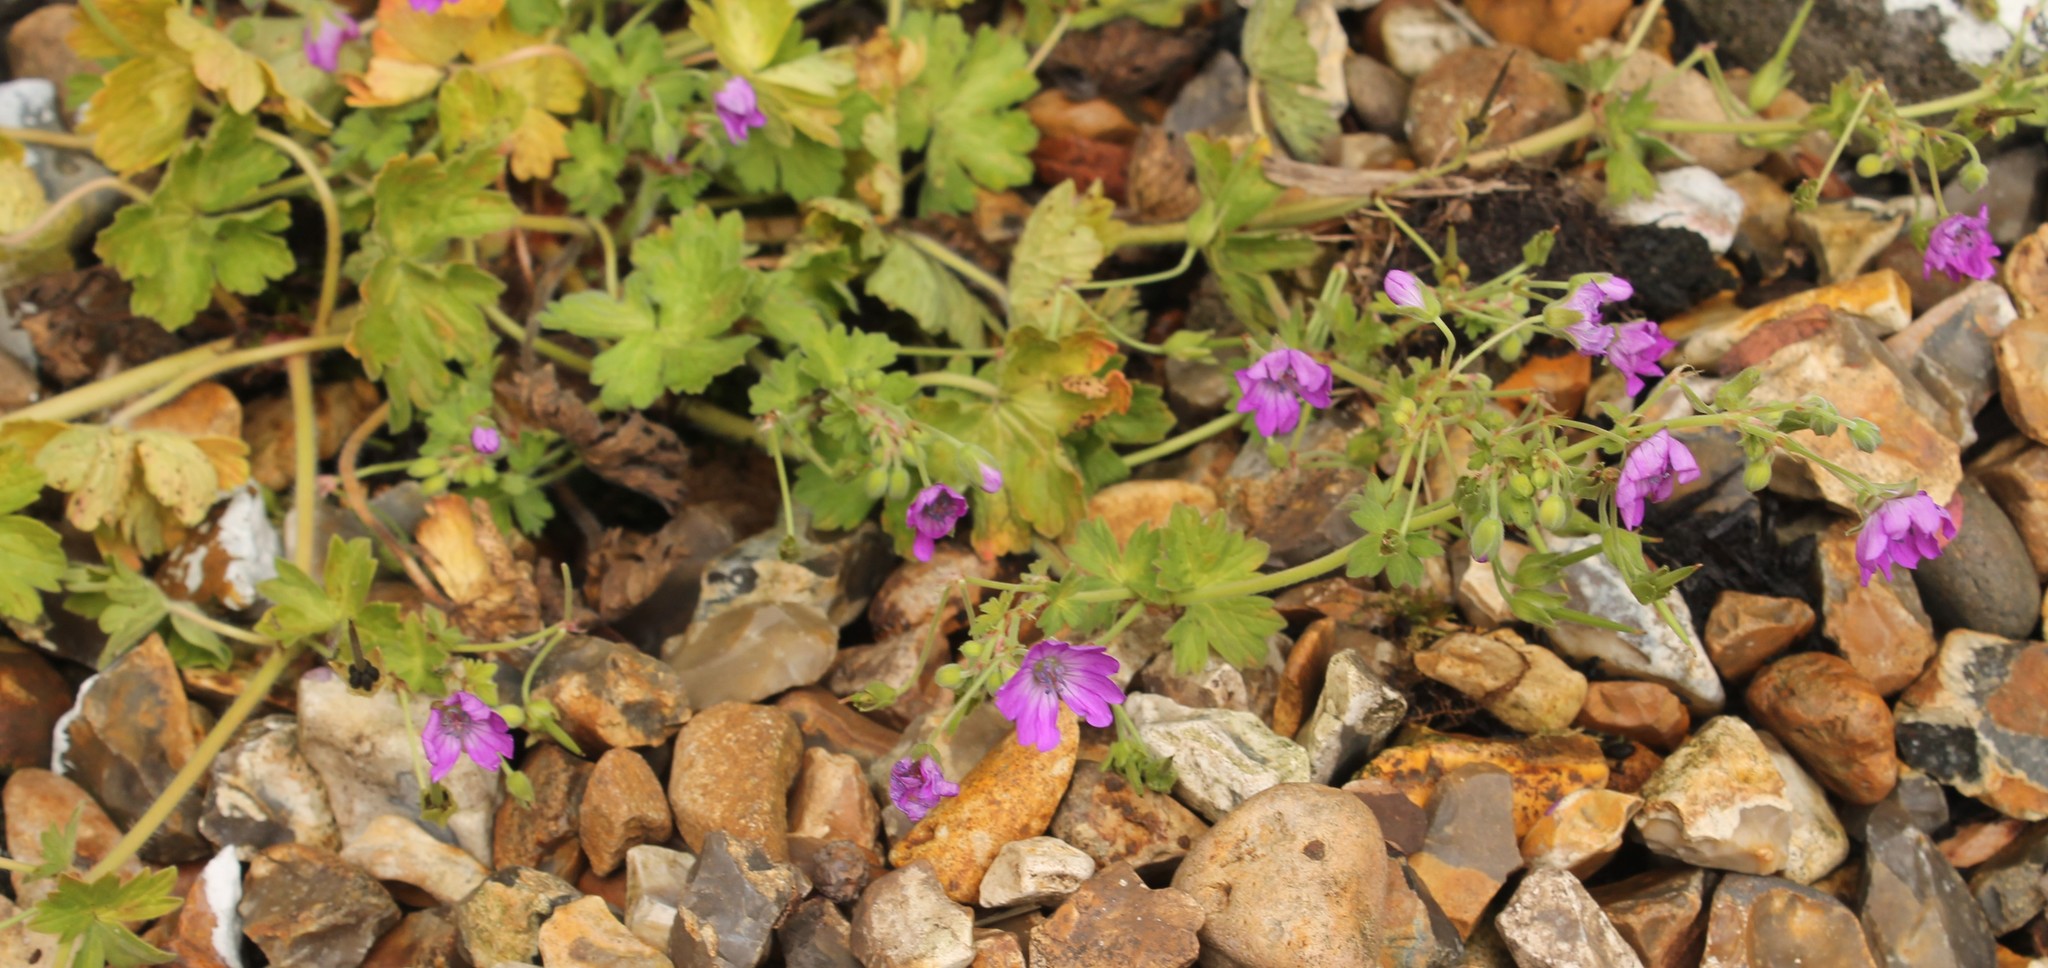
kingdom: Plantae
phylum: Tracheophyta
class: Magnoliopsida
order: Geraniales
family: Geraniaceae
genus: Geranium
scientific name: Geranium pyrenaicum
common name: Hedgerow crane's-bill
